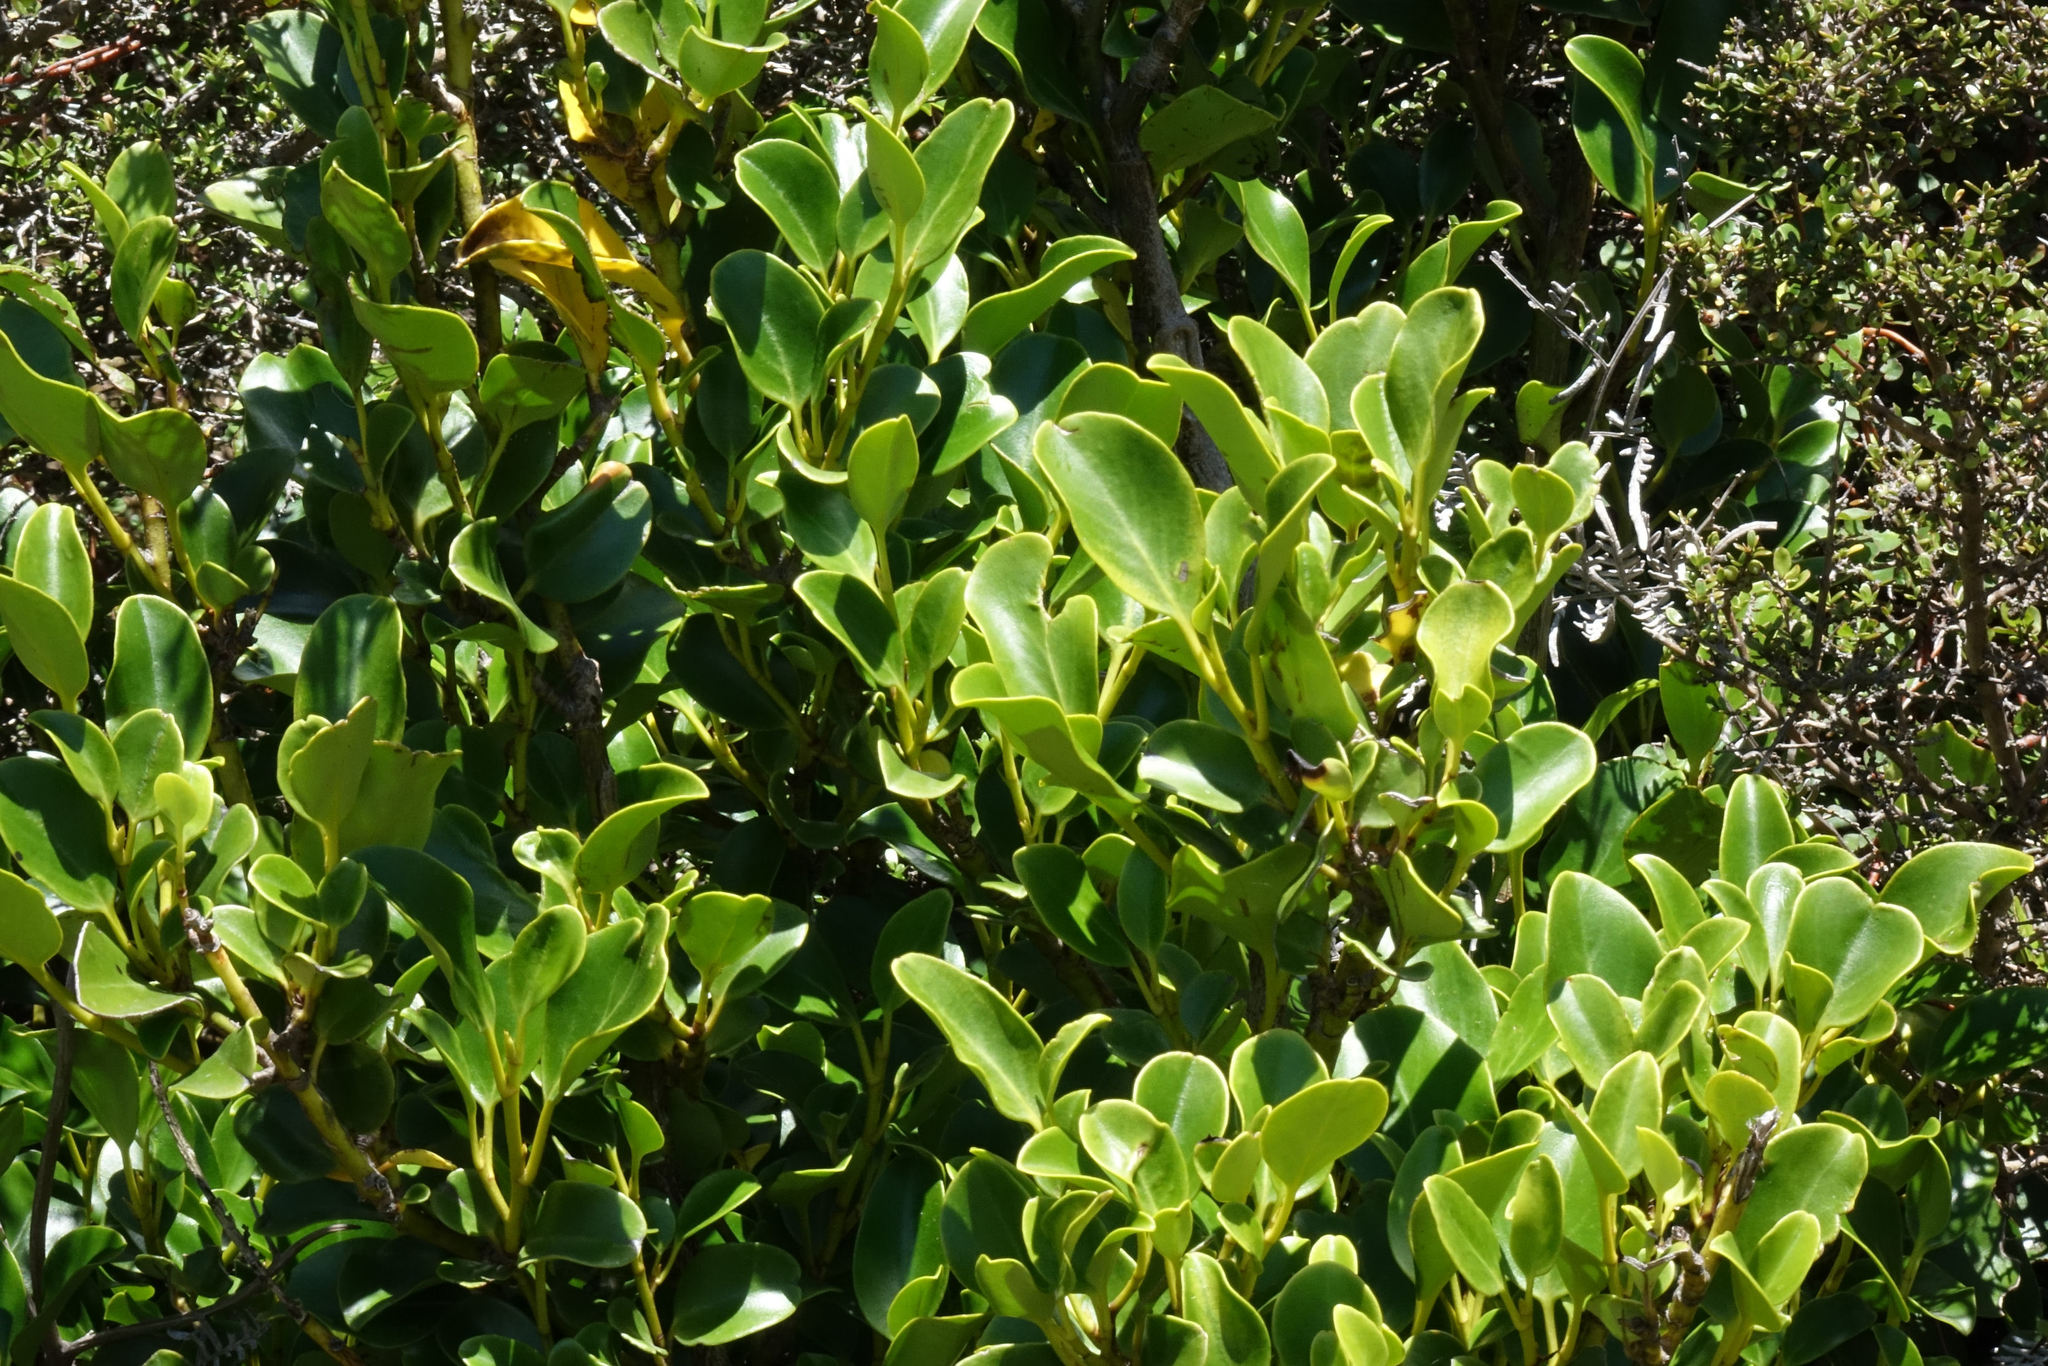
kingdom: Plantae
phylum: Tracheophyta
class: Magnoliopsida
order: Apiales
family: Griseliniaceae
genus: Griselinia
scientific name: Griselinia littoralis
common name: New zealand broadleaf
